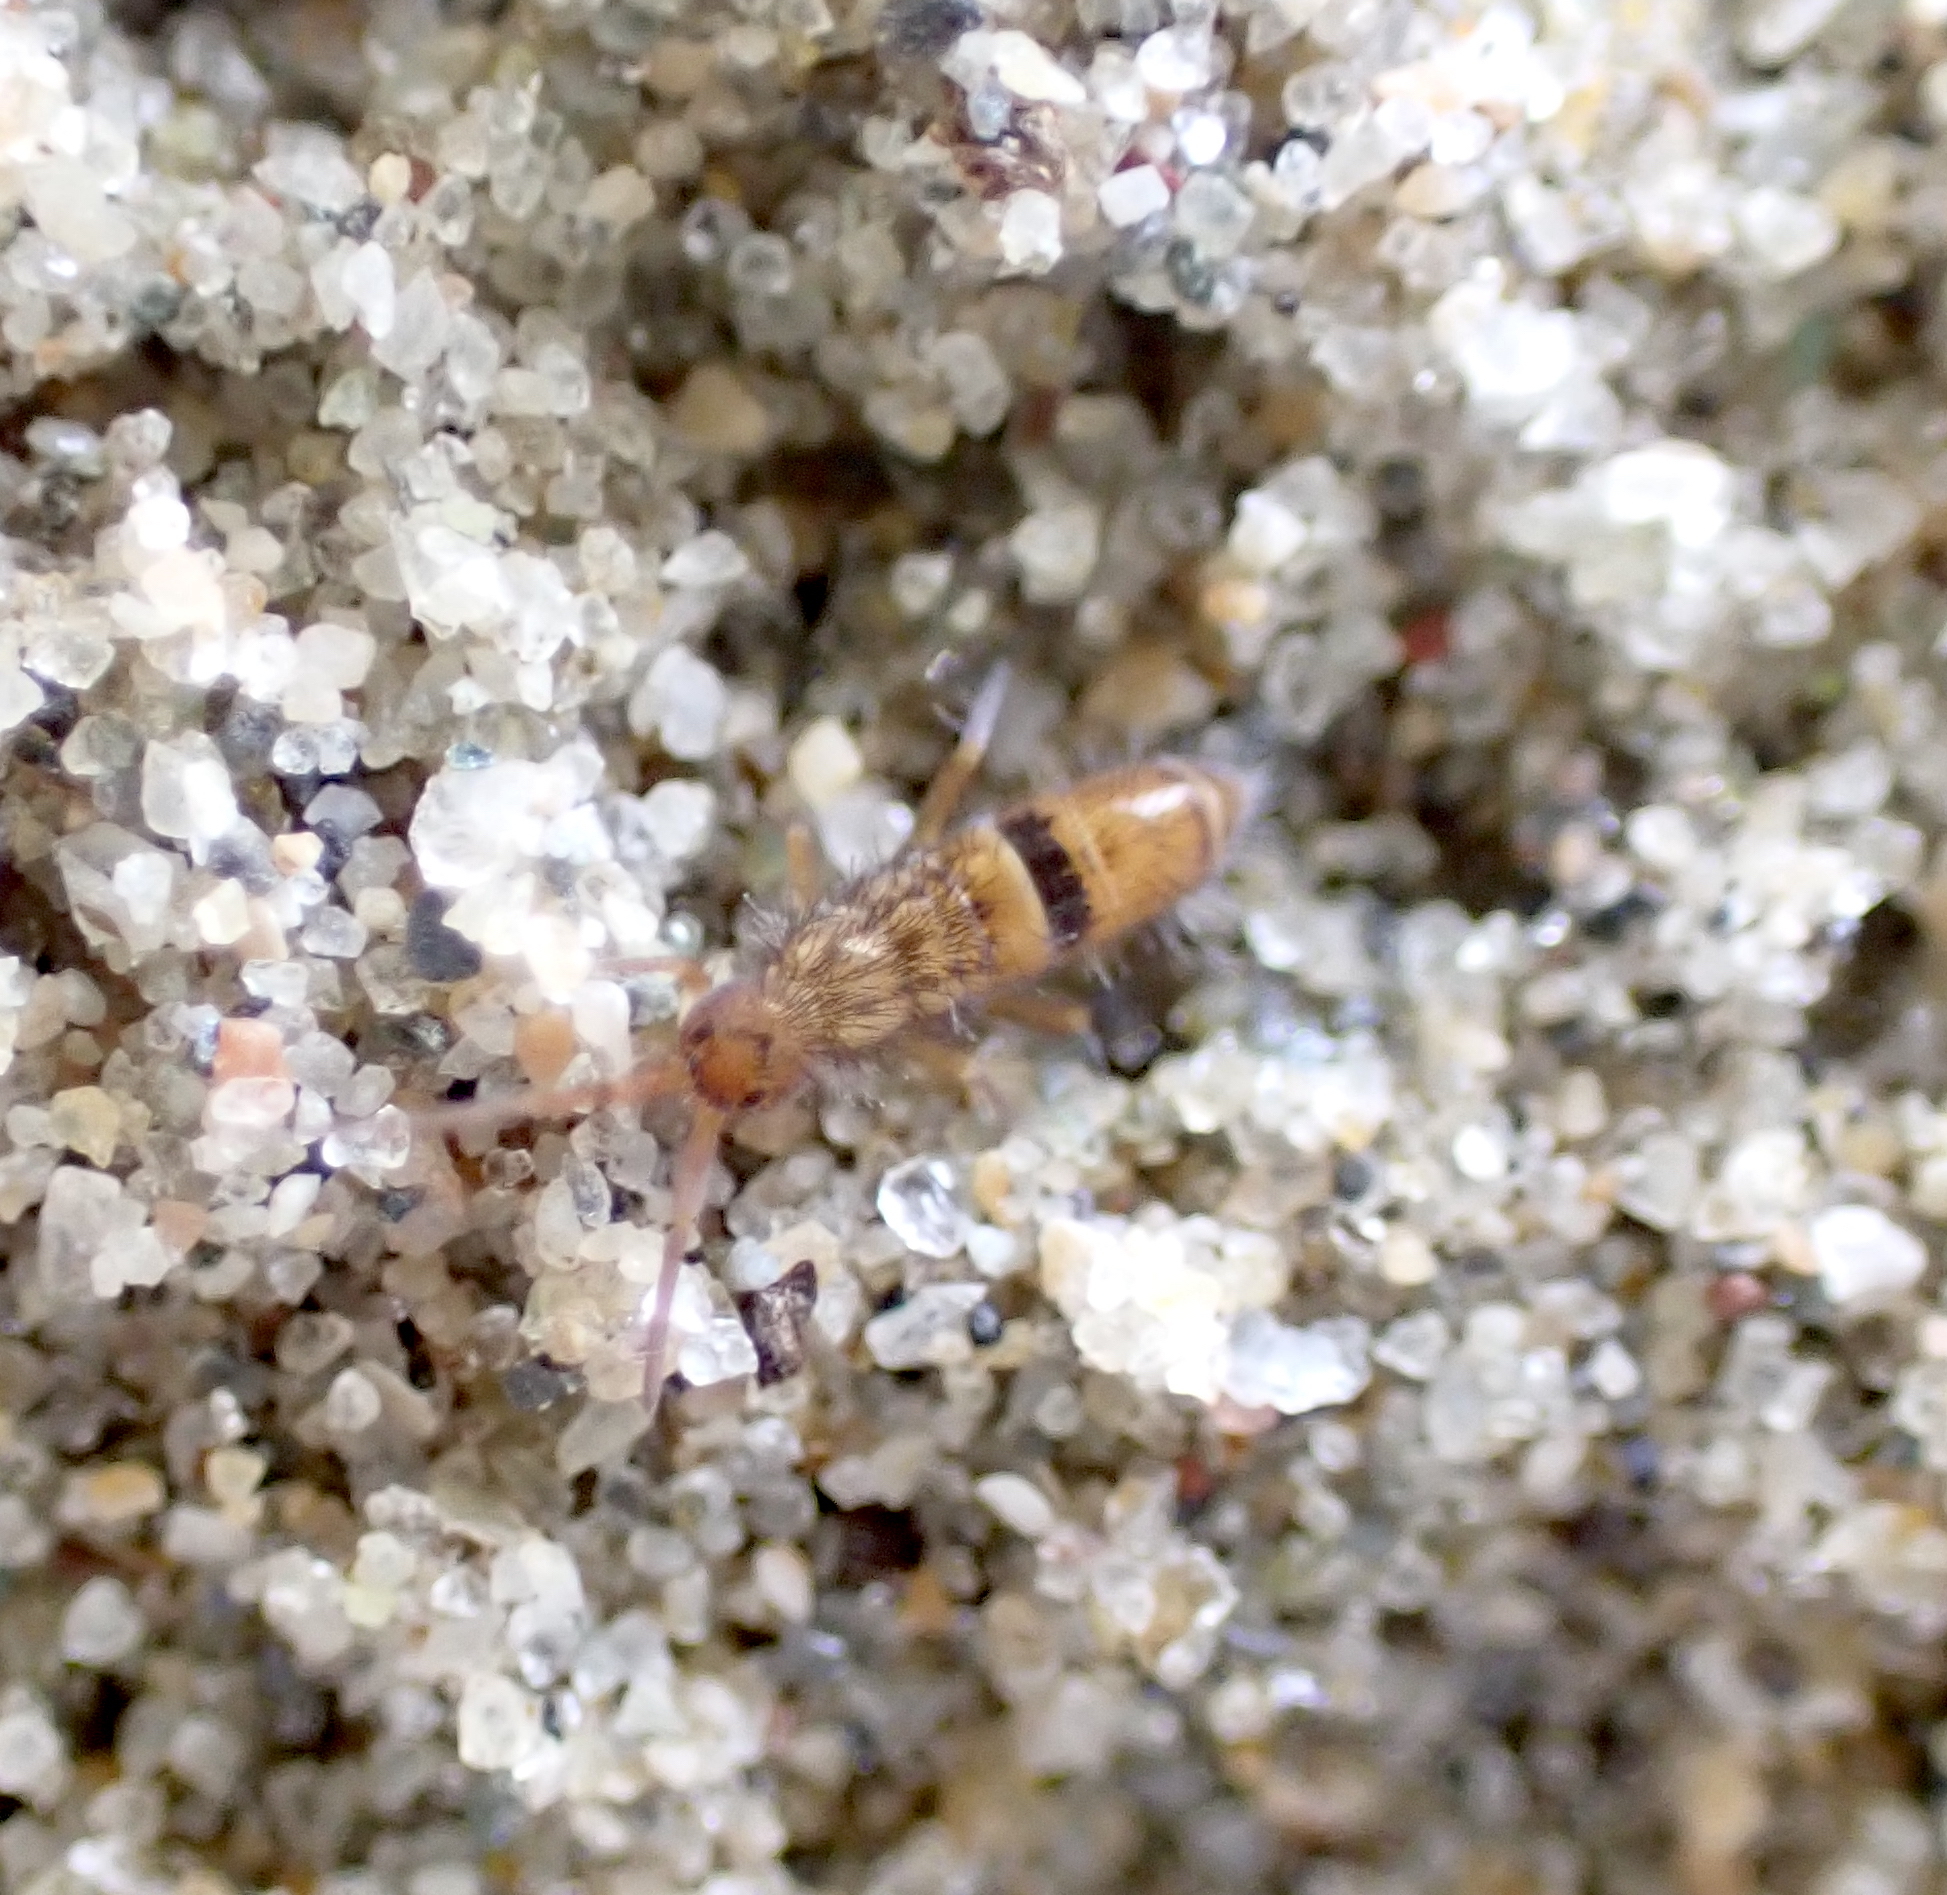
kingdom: Animalia
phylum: Arthropoda
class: Collembola
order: Entomobryomorpha
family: Orchesellidae
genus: Orchesella
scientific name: Orchesella cincta
